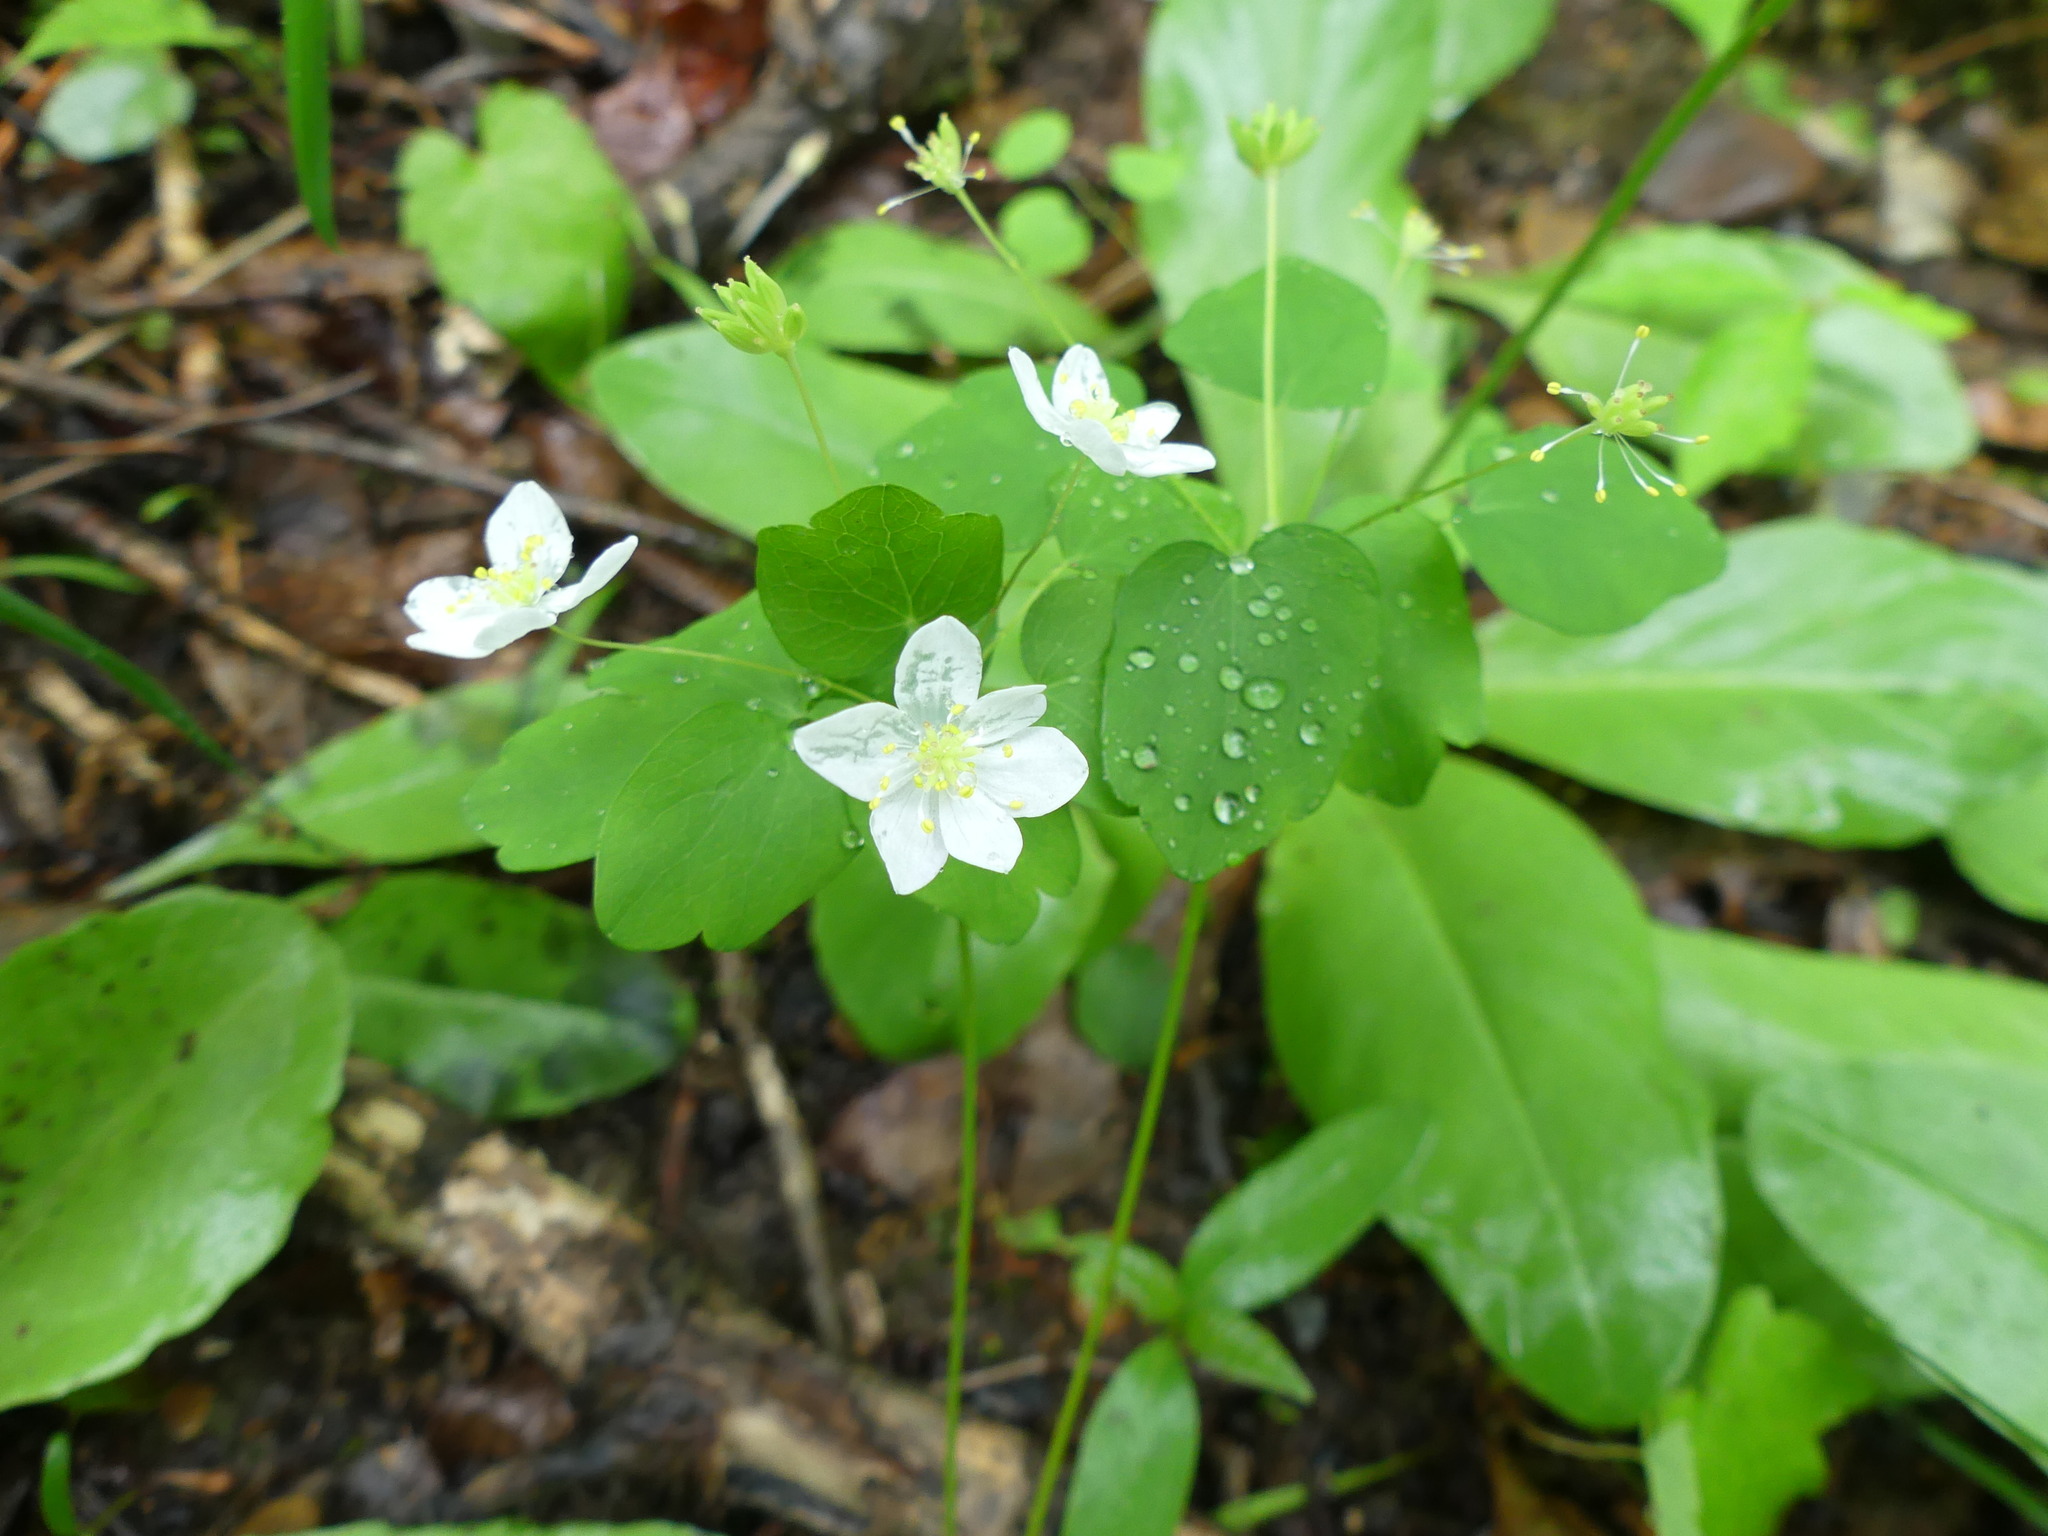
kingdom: Plantae
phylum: Tracheophyta
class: Magnoliopsida
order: Ranunculales
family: Ranunculaceae
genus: Thalictrum
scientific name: Thalictrum thalictroides
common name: Rue-anemone
